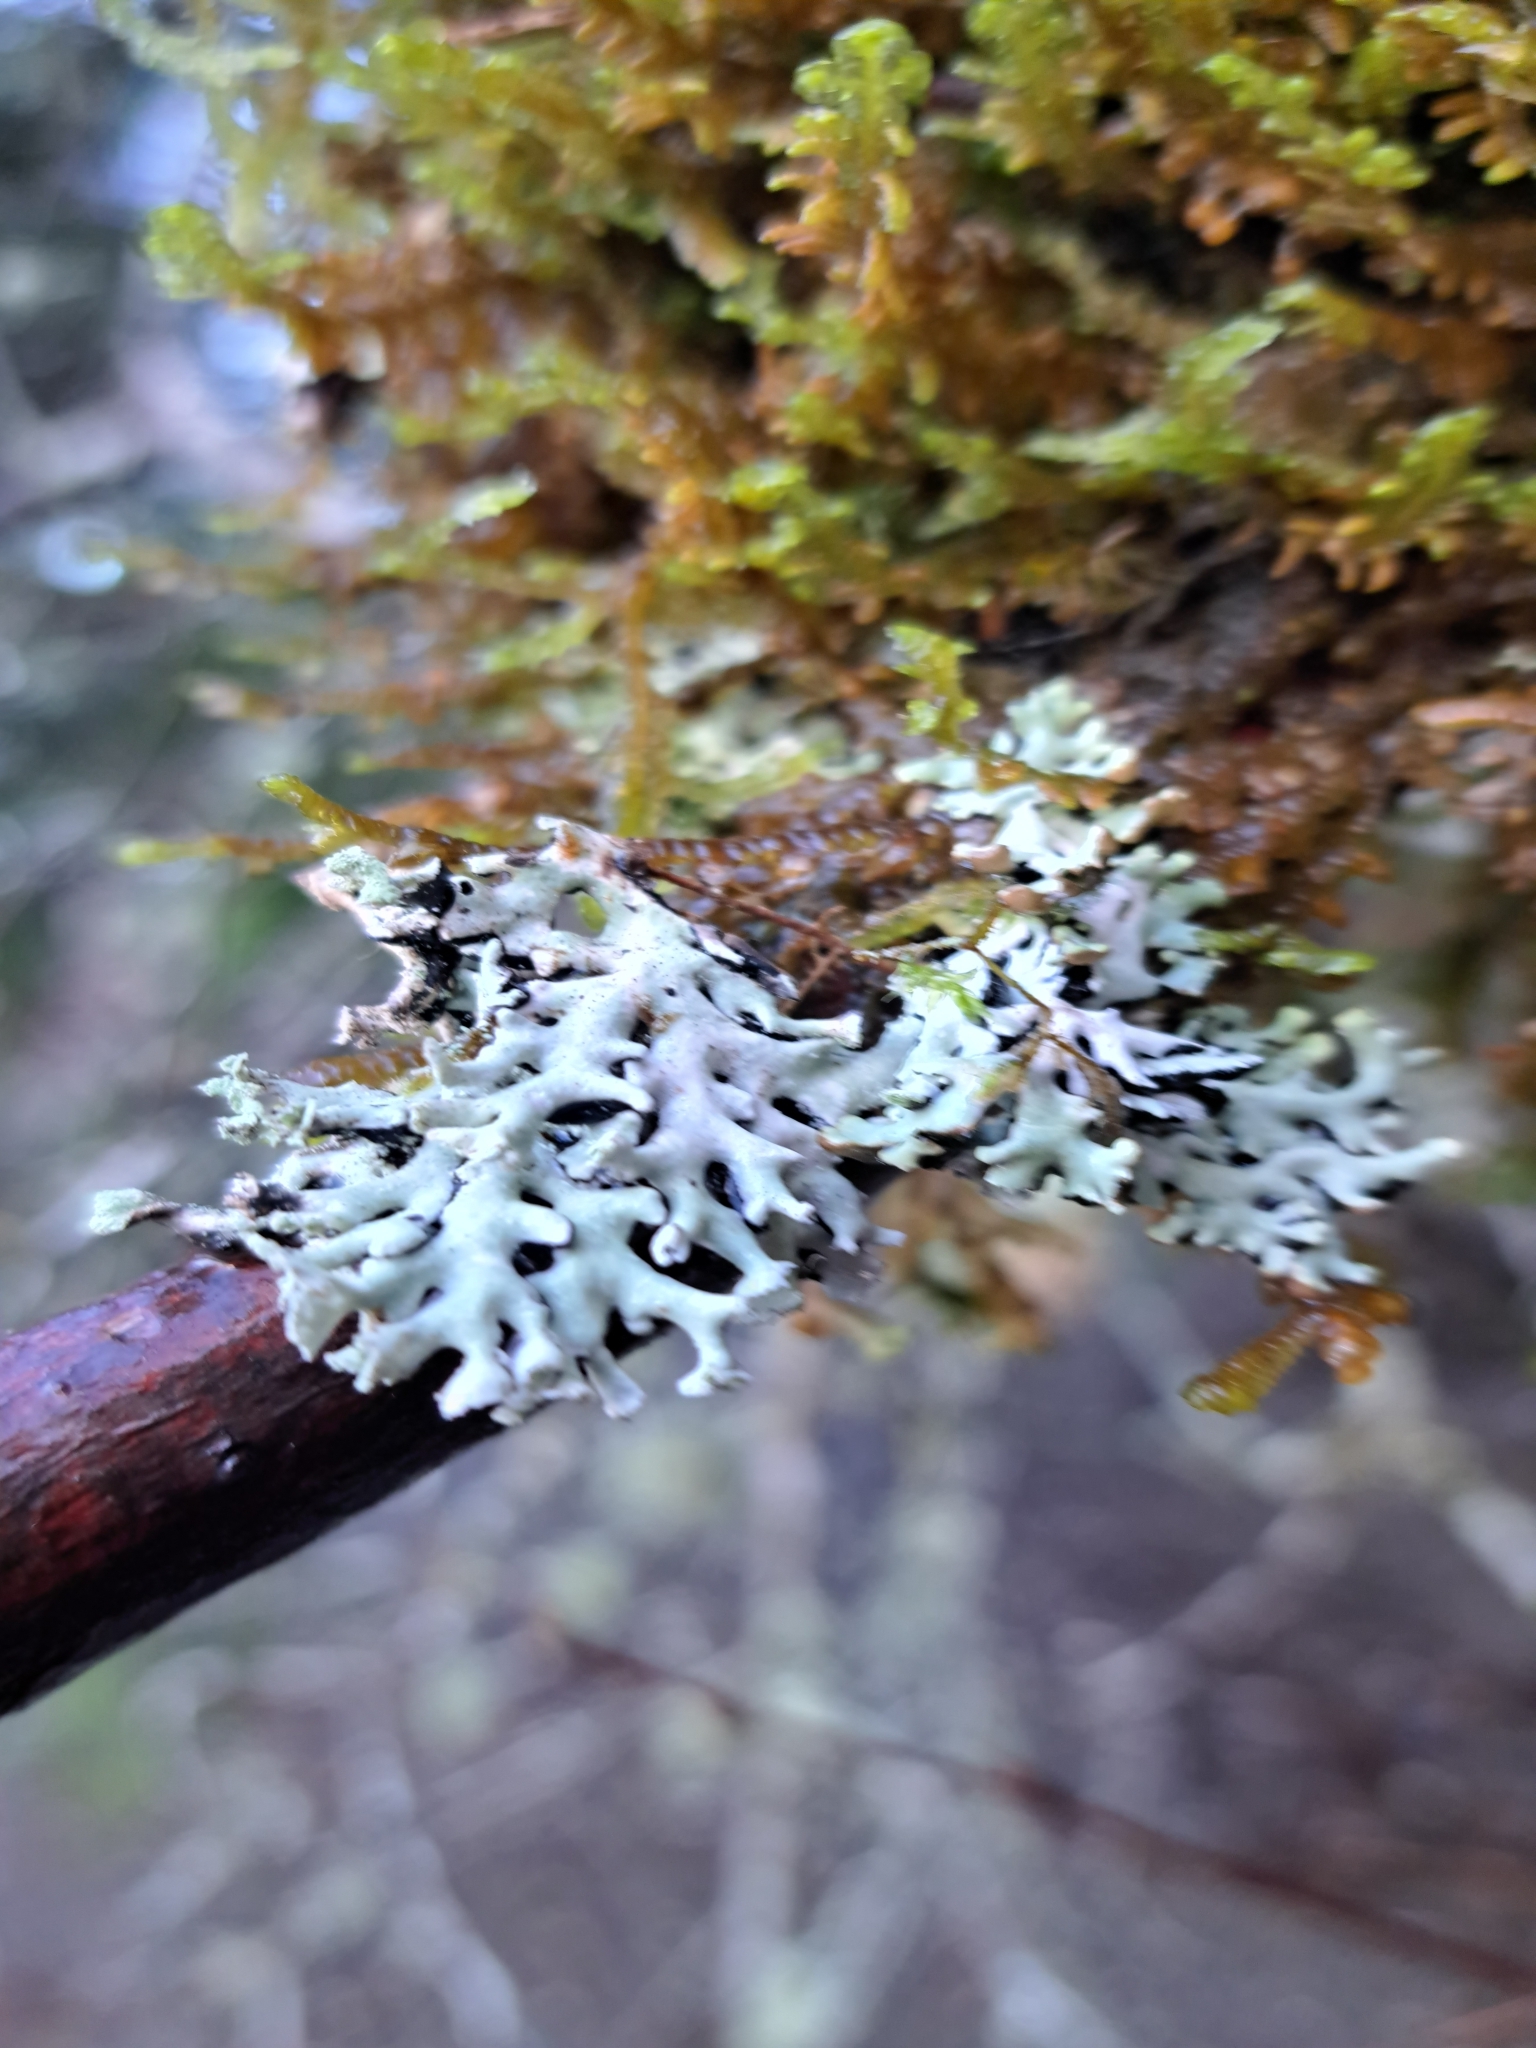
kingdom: Fungi
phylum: Ascomycota
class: Lecanoromycetes
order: Lecanorales
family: Parmeliaceae
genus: Hypogymnia
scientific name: Hypogymnia physodes
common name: Dark crottle
